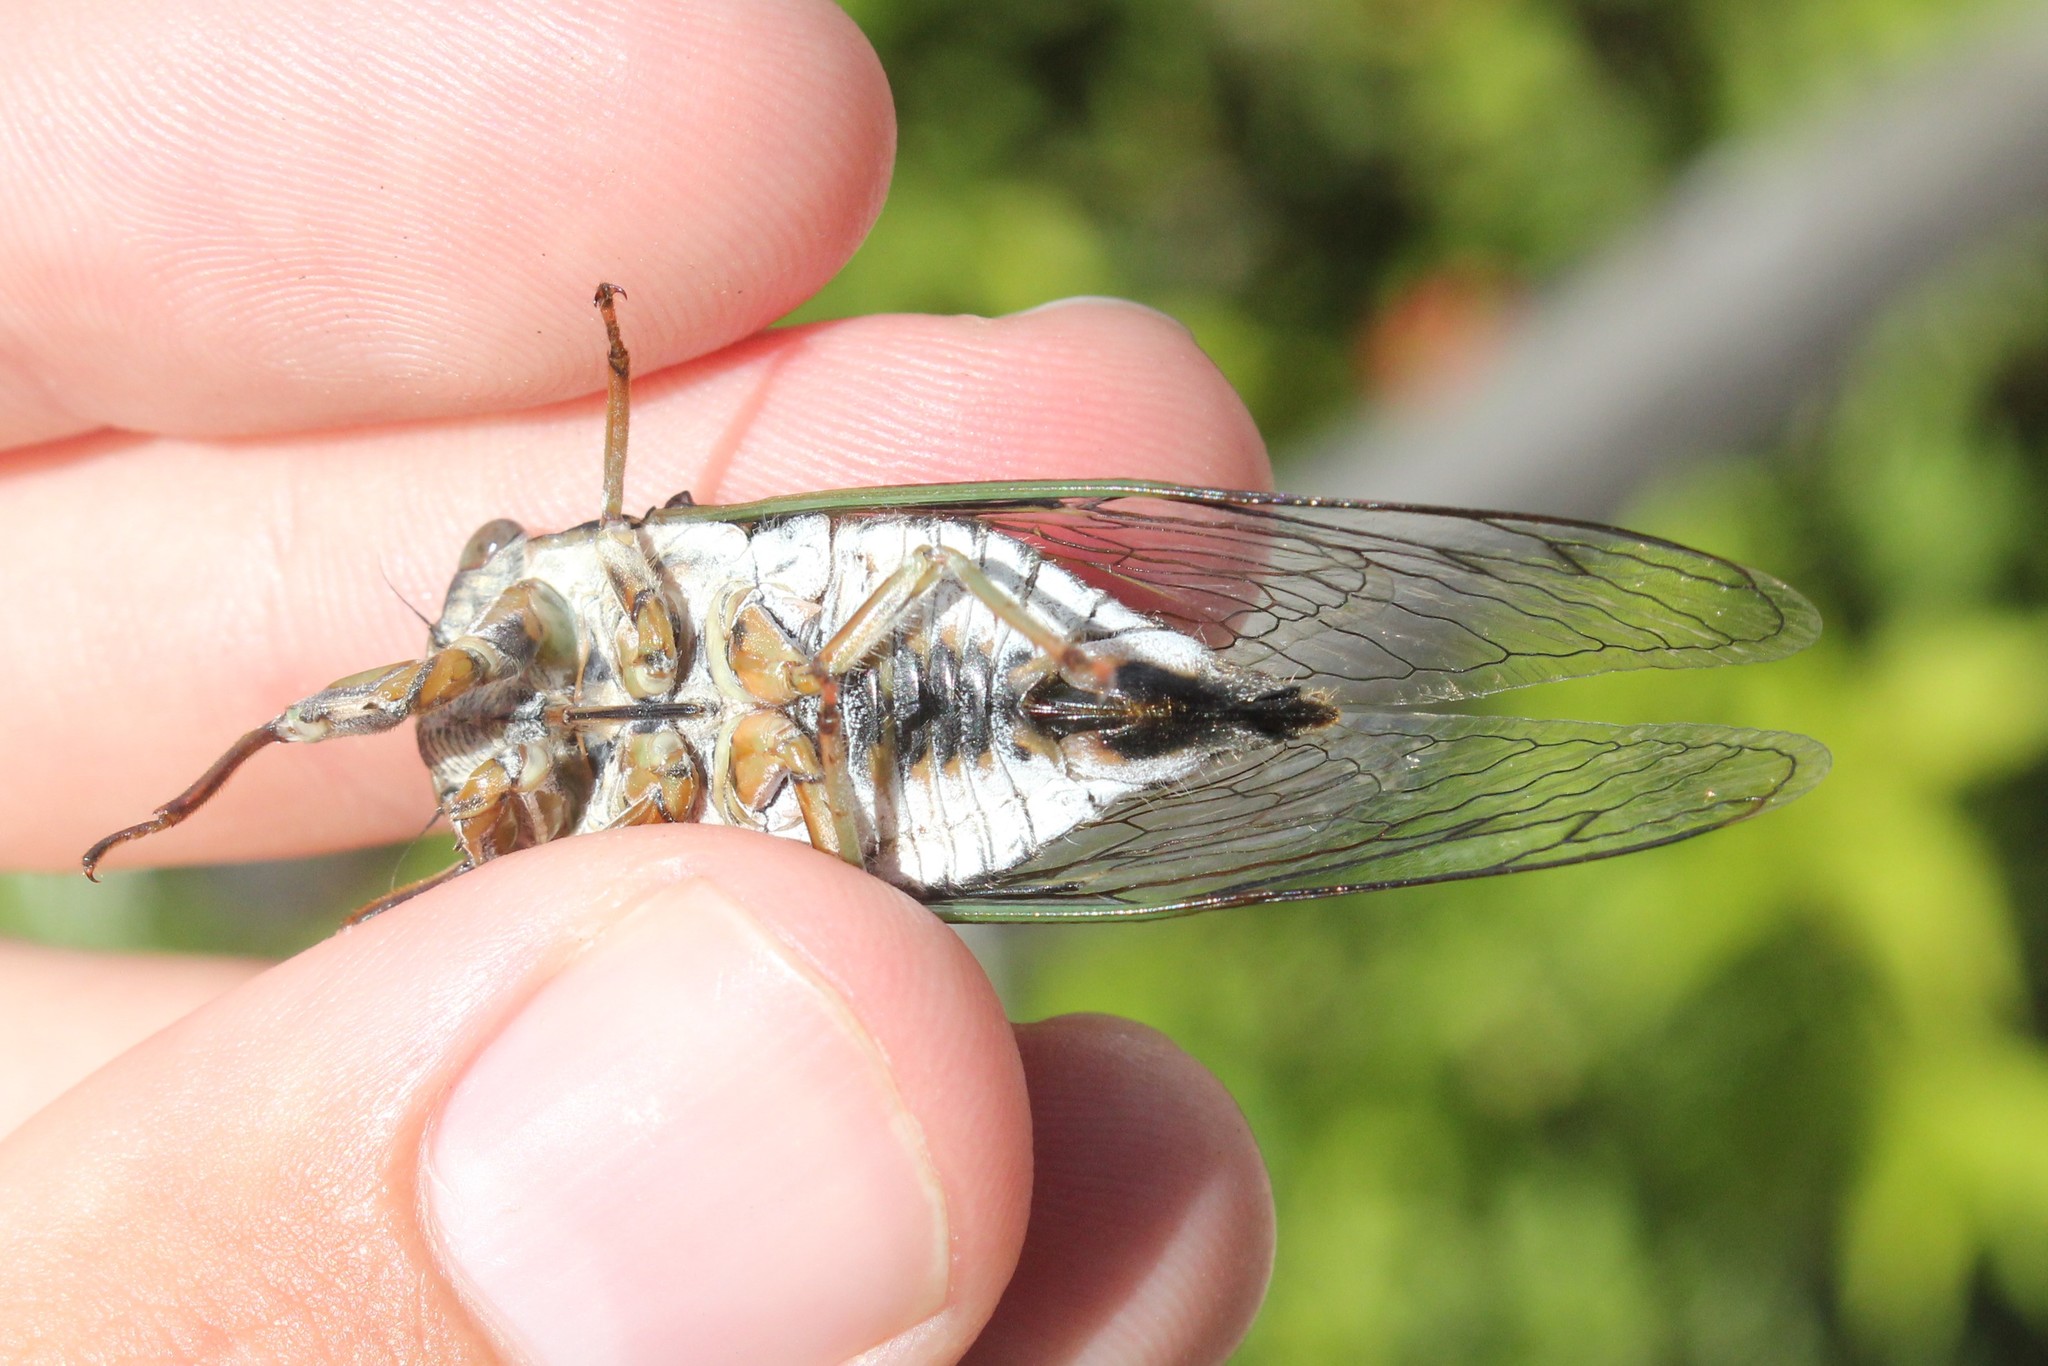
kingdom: Animalia
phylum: Arthropoda
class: Insecta
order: Hemiptera
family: Cicadidae
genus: Neotibicen
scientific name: Neotibicen canicularis
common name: God-day cicada
